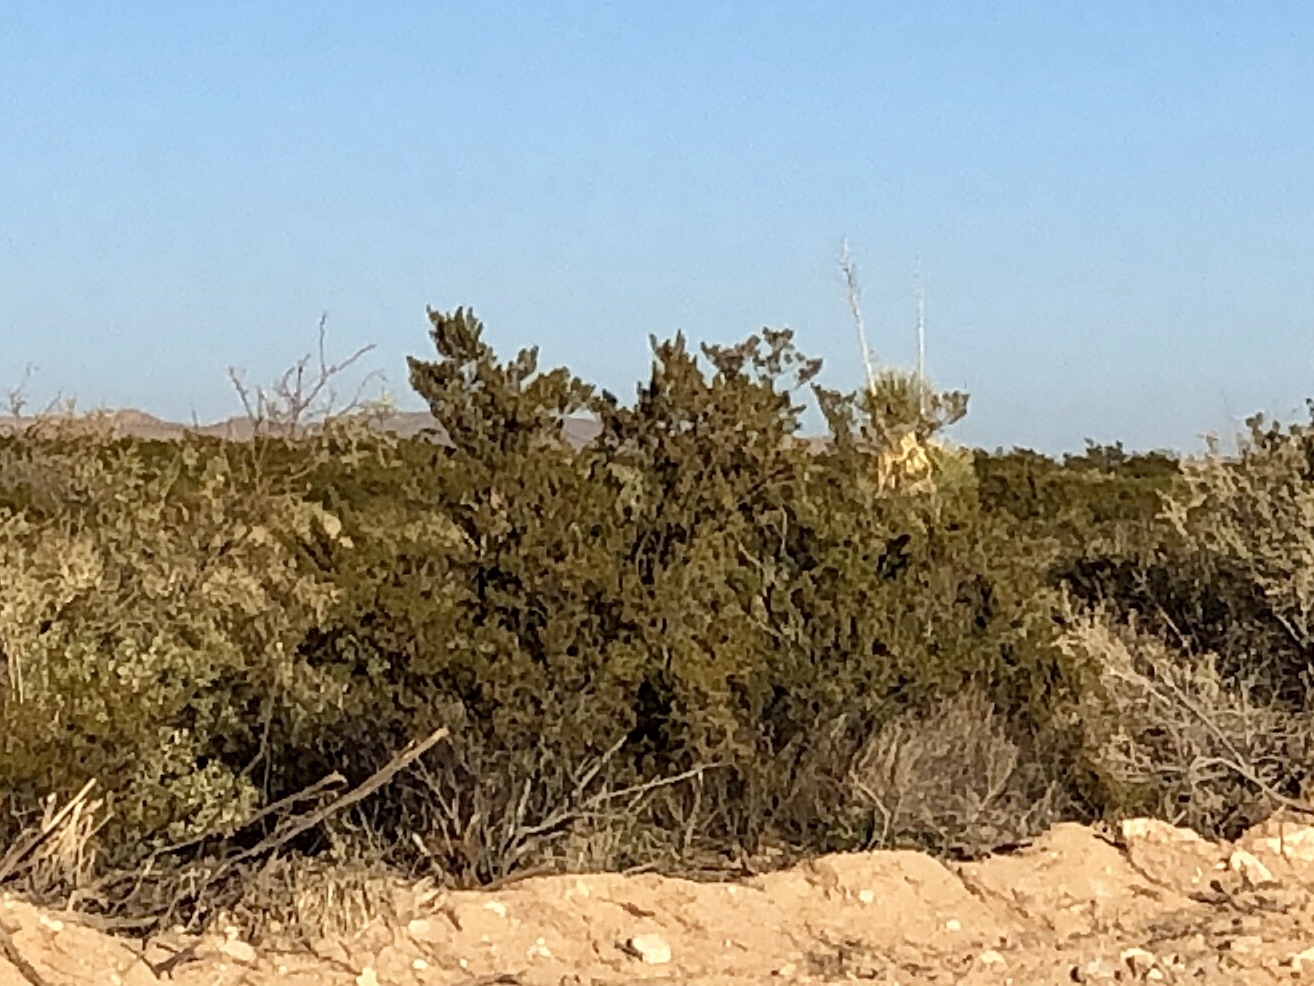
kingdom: Plantae
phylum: Tracheophyta
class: Magnoliopsida
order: Zygophyllales
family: Zygophyllaceae
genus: Larrea
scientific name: Larrea tridentata
